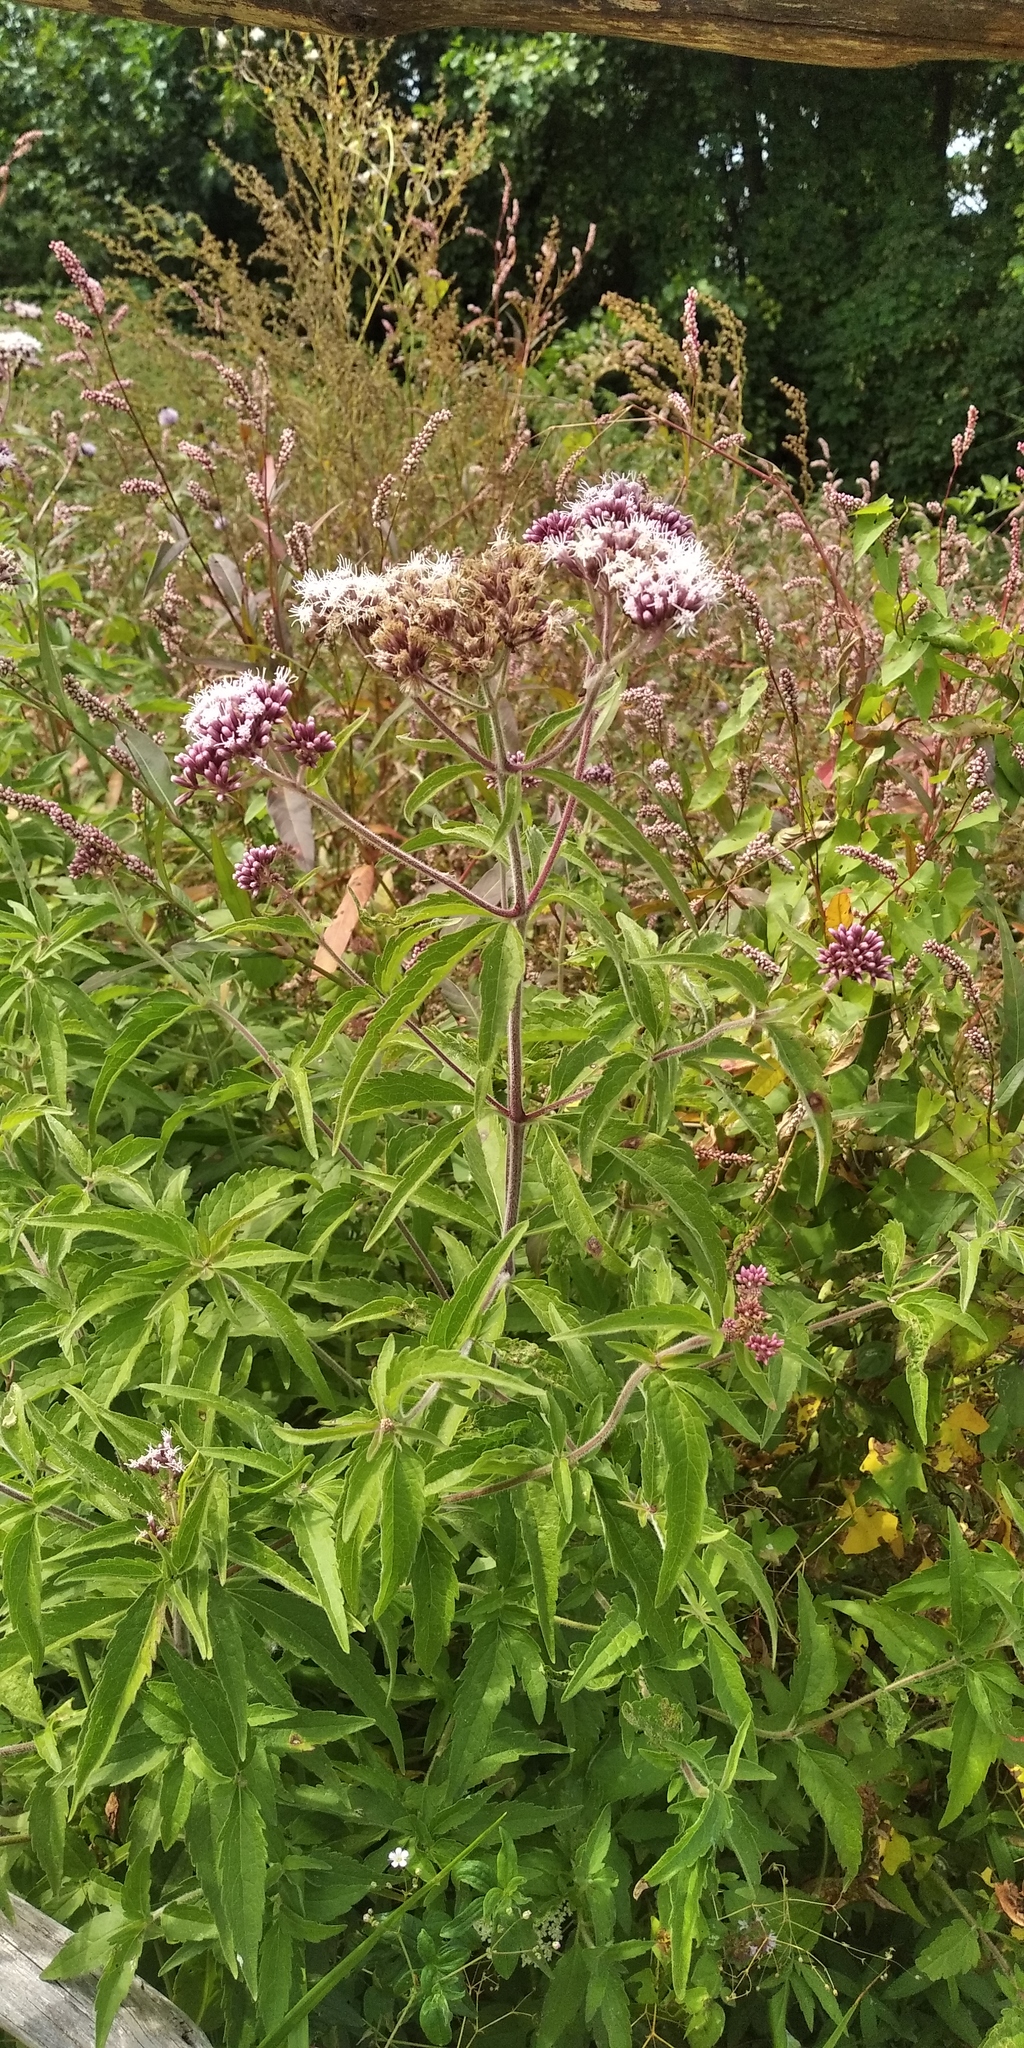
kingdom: Plantae
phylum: Tracheophyta
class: Magnoliopsida
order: Asterales
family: Asteraceae
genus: Eupatorium
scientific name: Eupatorium cannabinum
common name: Hemp-agrimony
